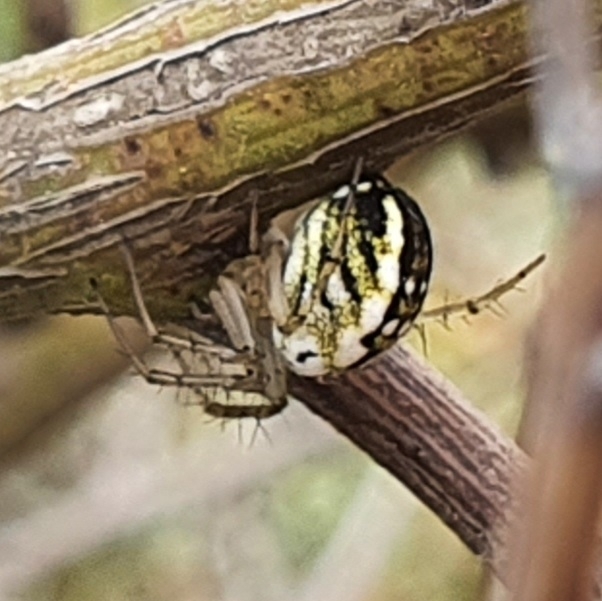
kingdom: Animalia
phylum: Arthropoda
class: Arachnida
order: Araneae
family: Araneidae
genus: Mangora
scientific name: Mangora acalypha
